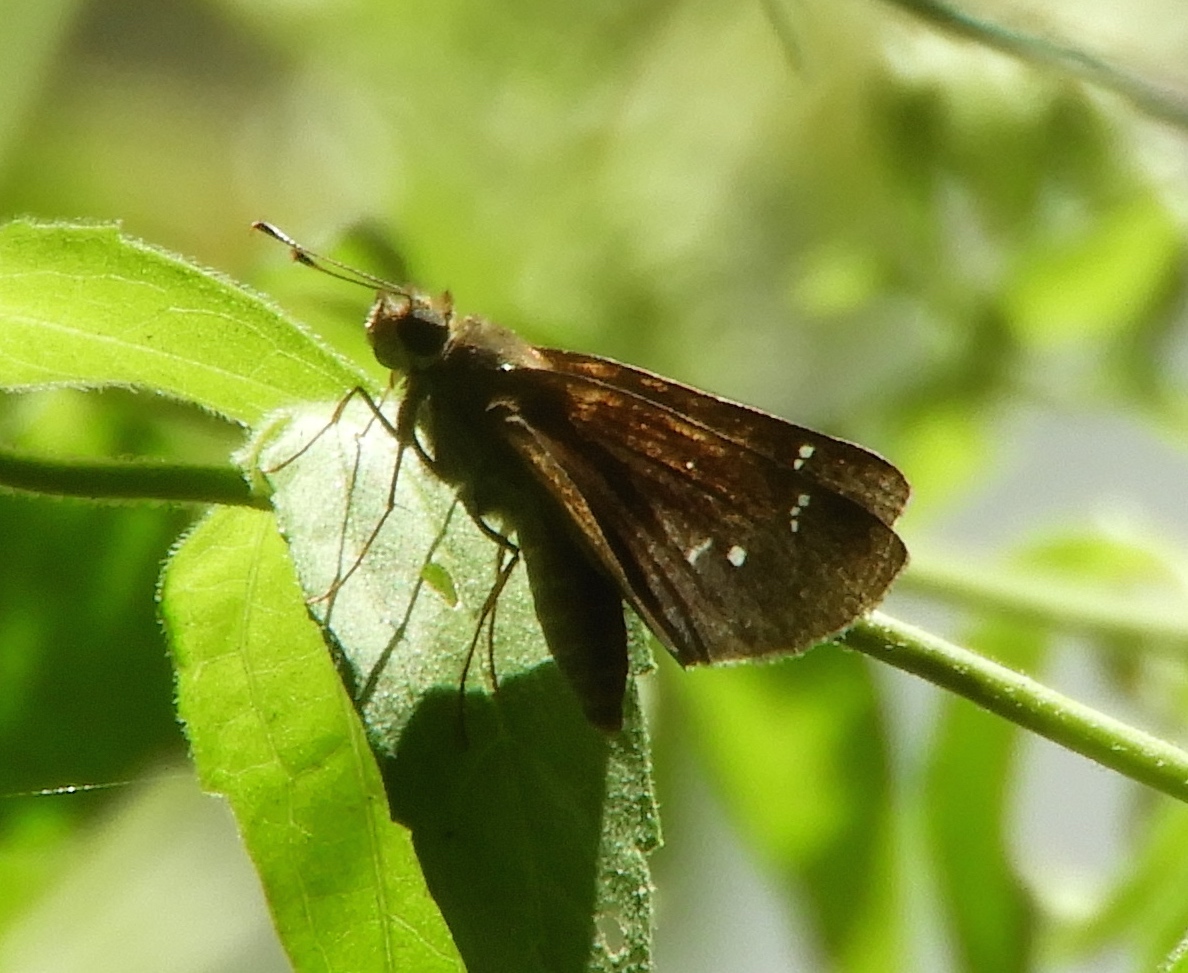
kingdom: Animalia
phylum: Arthropoda
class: Insecta
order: Lepidoptera
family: Hesperiidae
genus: Lerema
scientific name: Lerema
